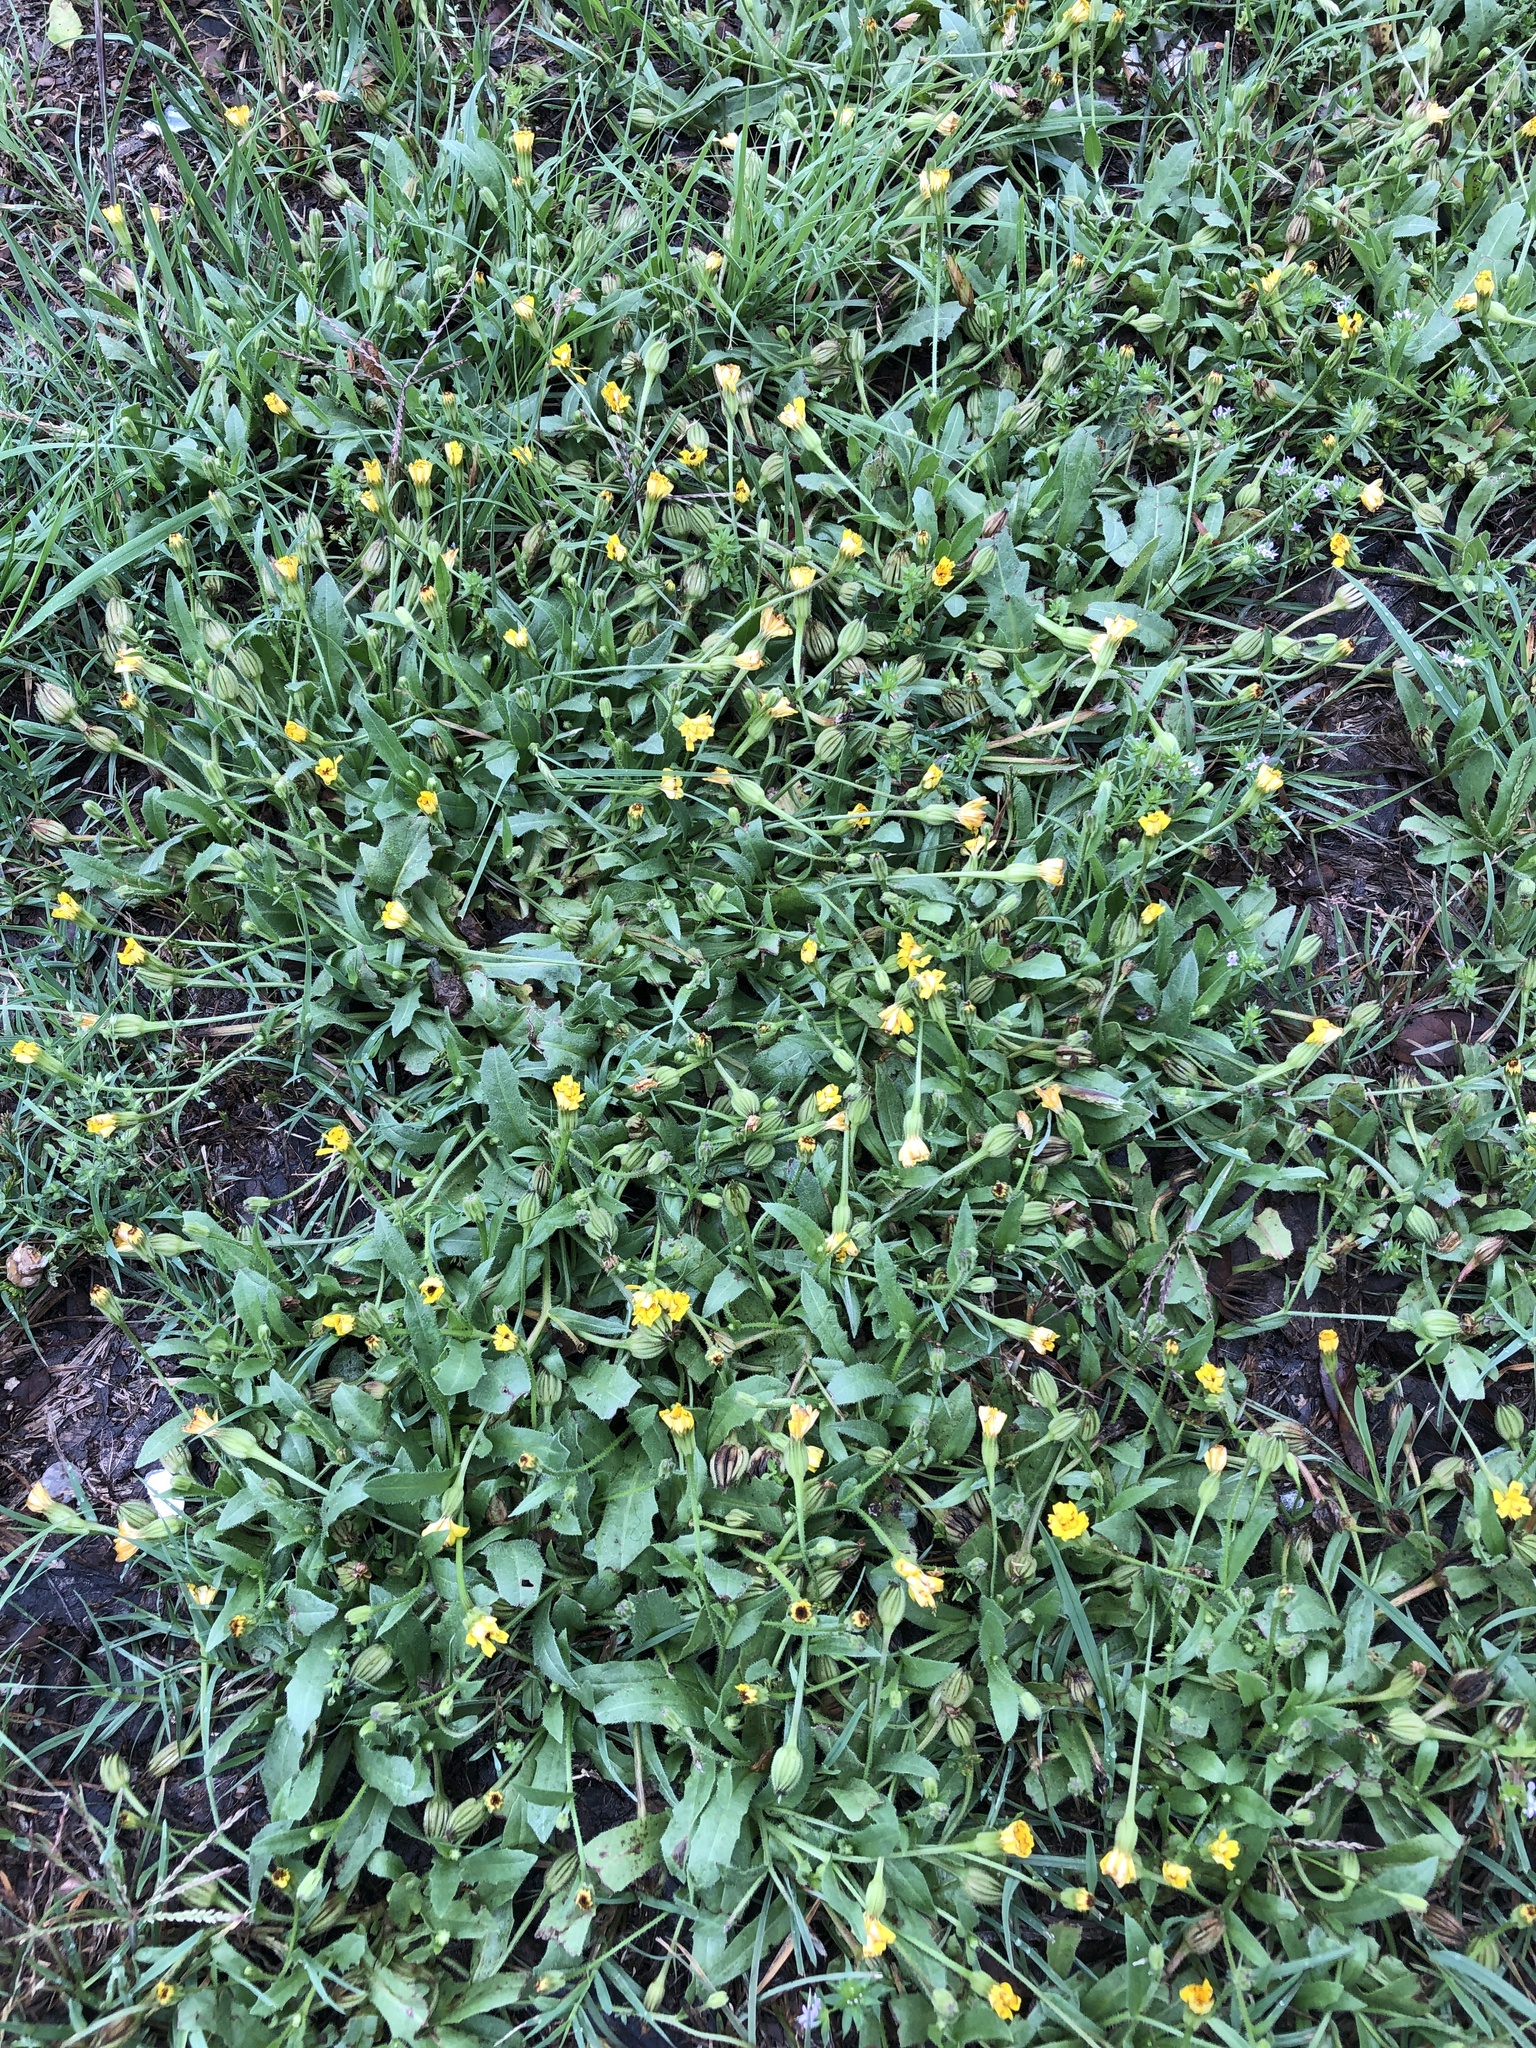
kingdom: Plantae
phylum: Tracheophyta
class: Magnoliopsida
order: Asterales
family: Asteraceae
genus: Hedypnois
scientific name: Hedypnois rhagadioloides
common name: Cretan weed
